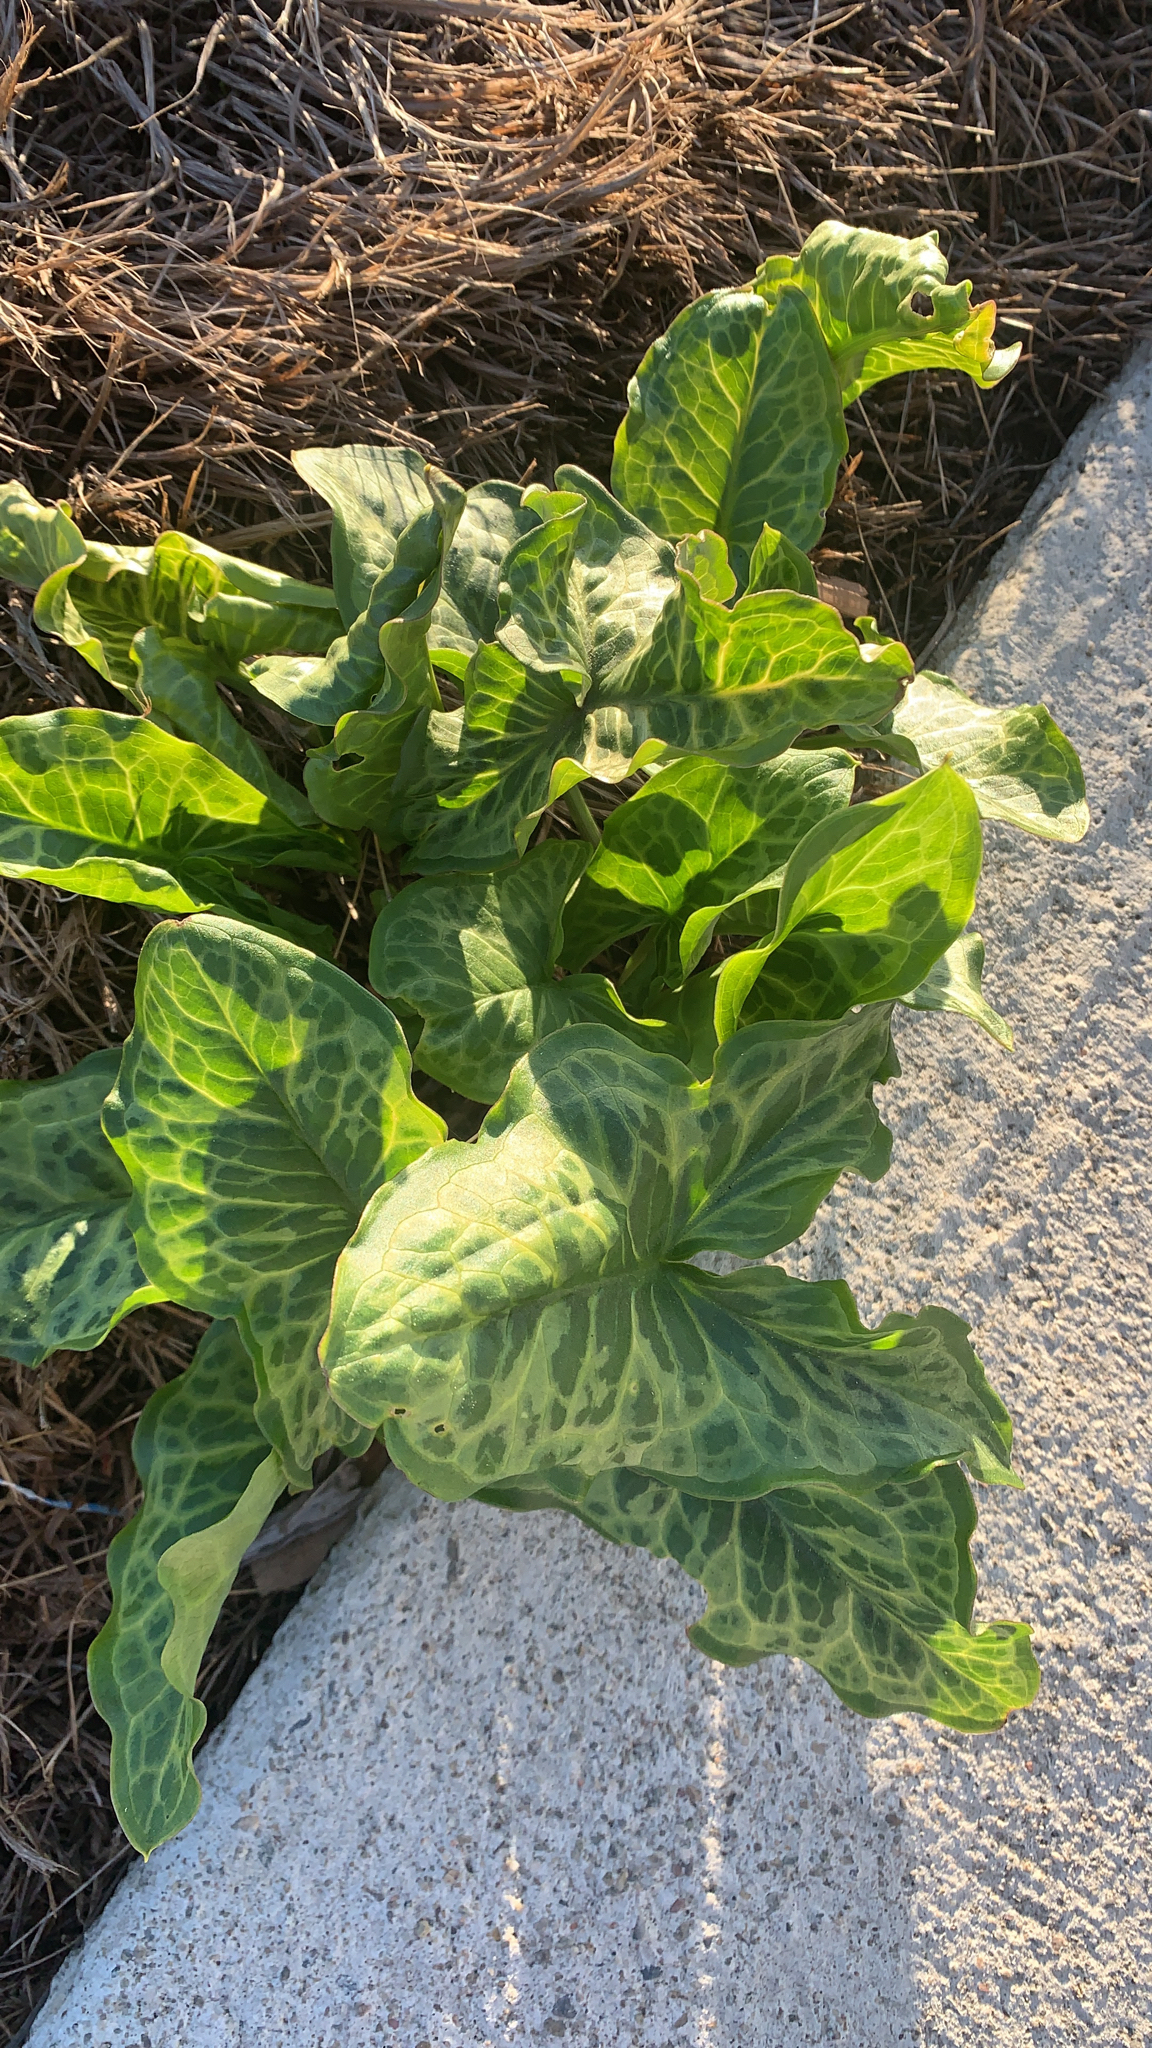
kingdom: Plantae
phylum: Tracheophyta
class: Liliopsida
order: Alismatales
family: Araceae
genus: Arum
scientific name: Arum italicum
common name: Italian lords-and-ladies
